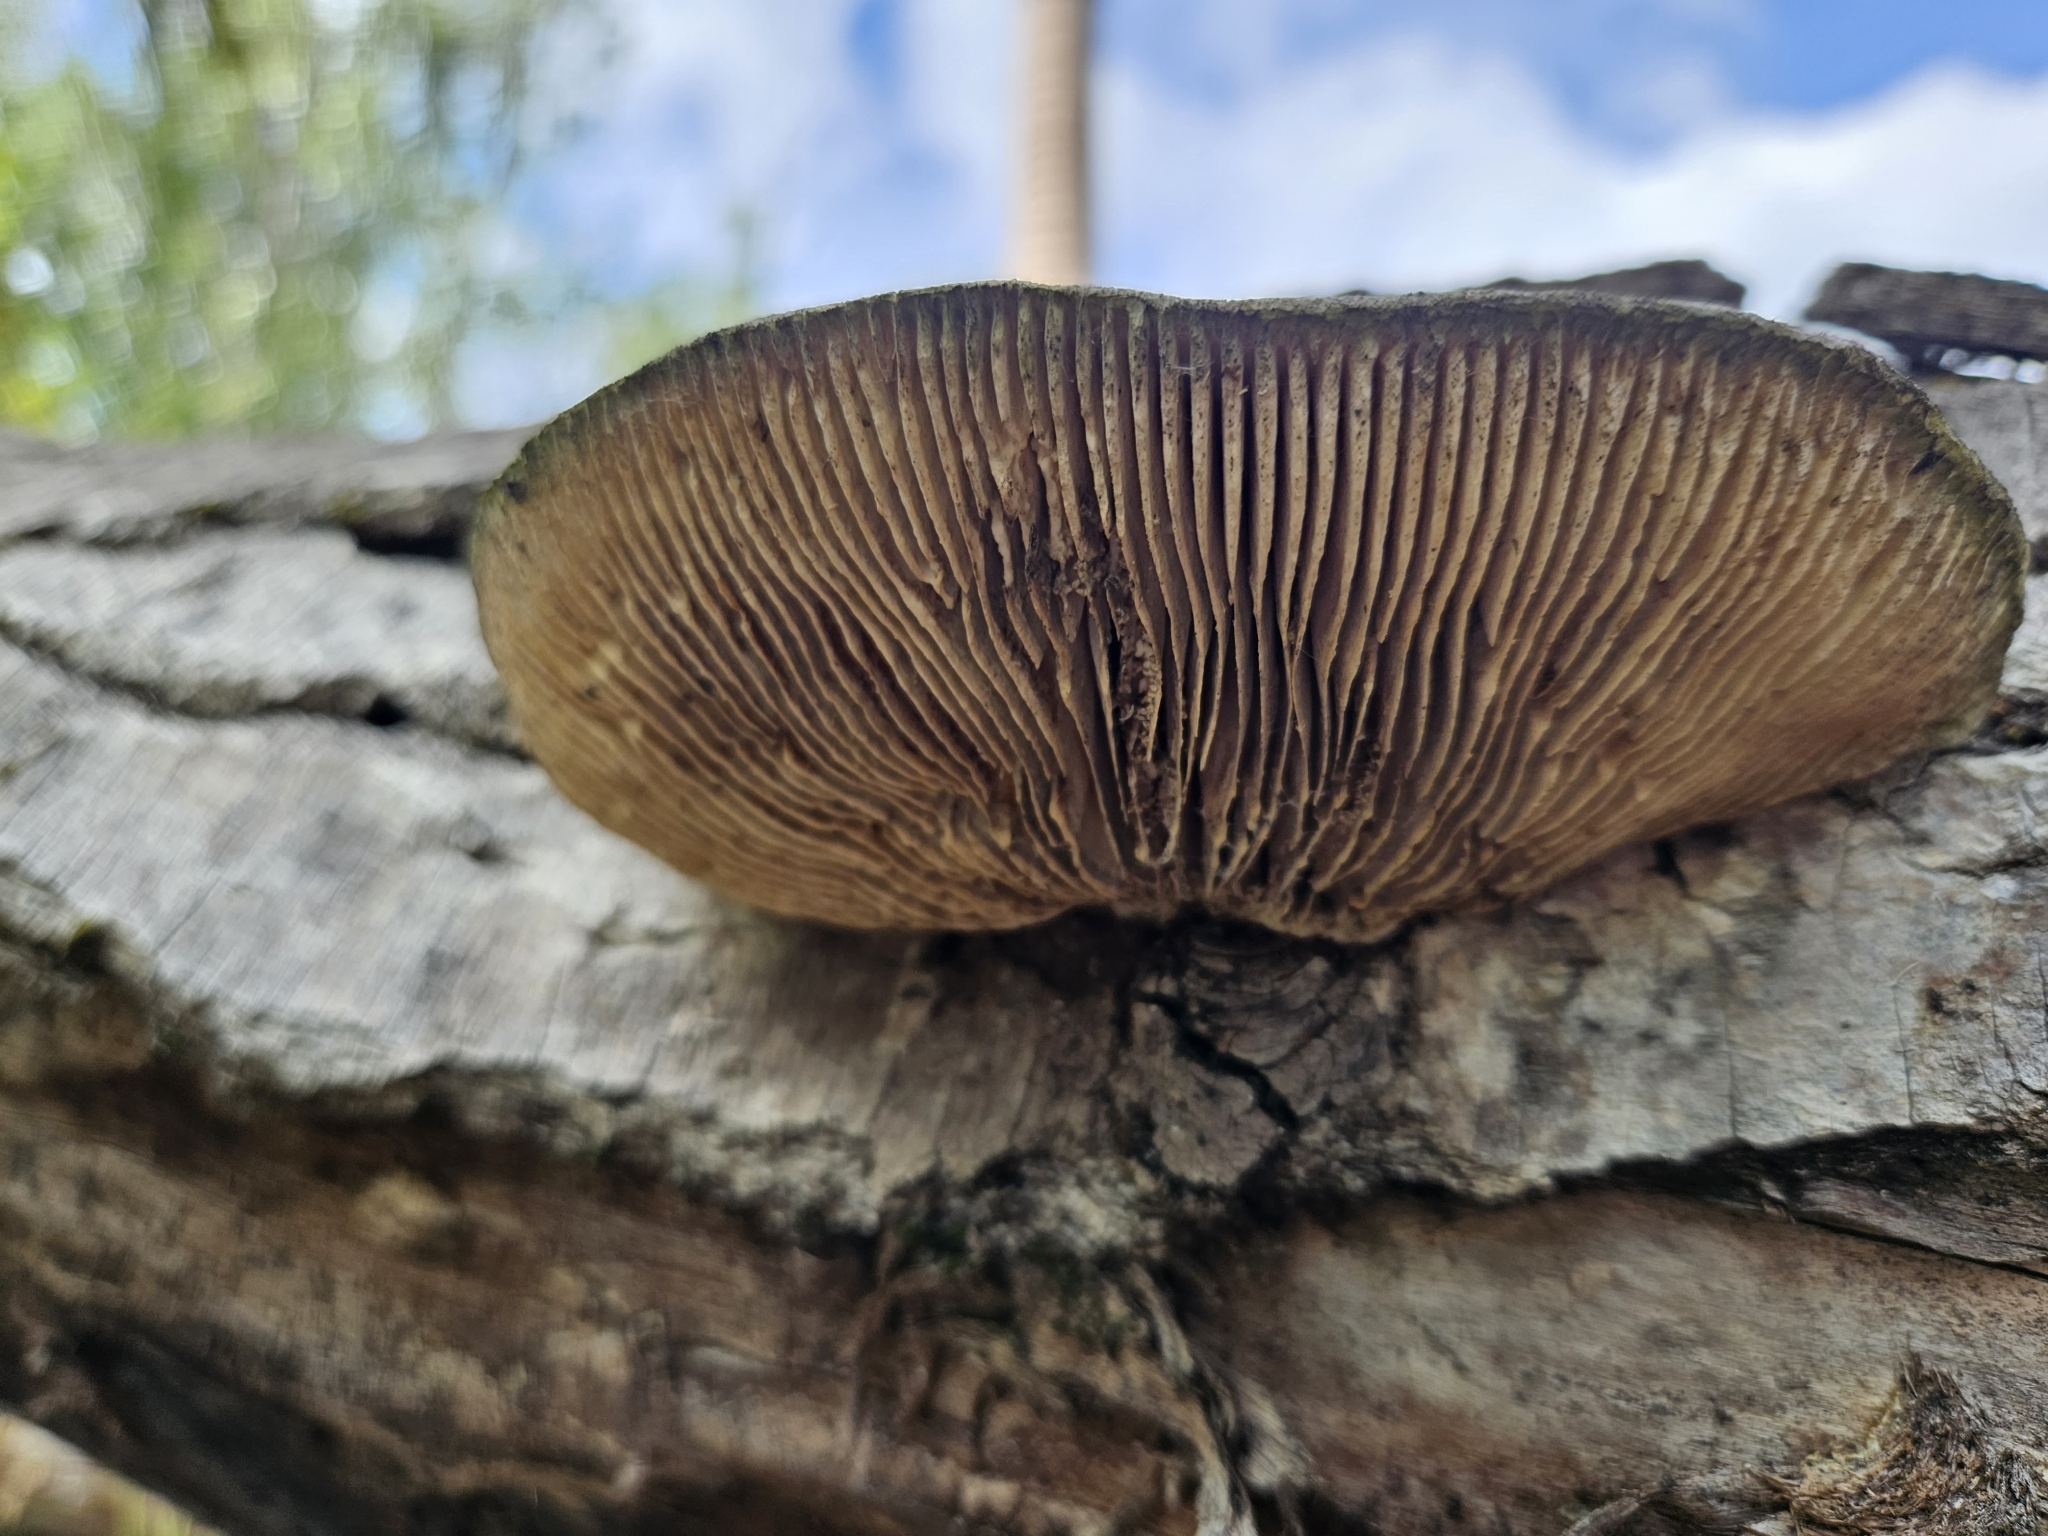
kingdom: Fungi
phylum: Basidiomycota
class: Agaricomycetes
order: Polyporales
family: Polyporaceae
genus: Lenzites
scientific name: Lenzites betulinus
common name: Birch mazegill
